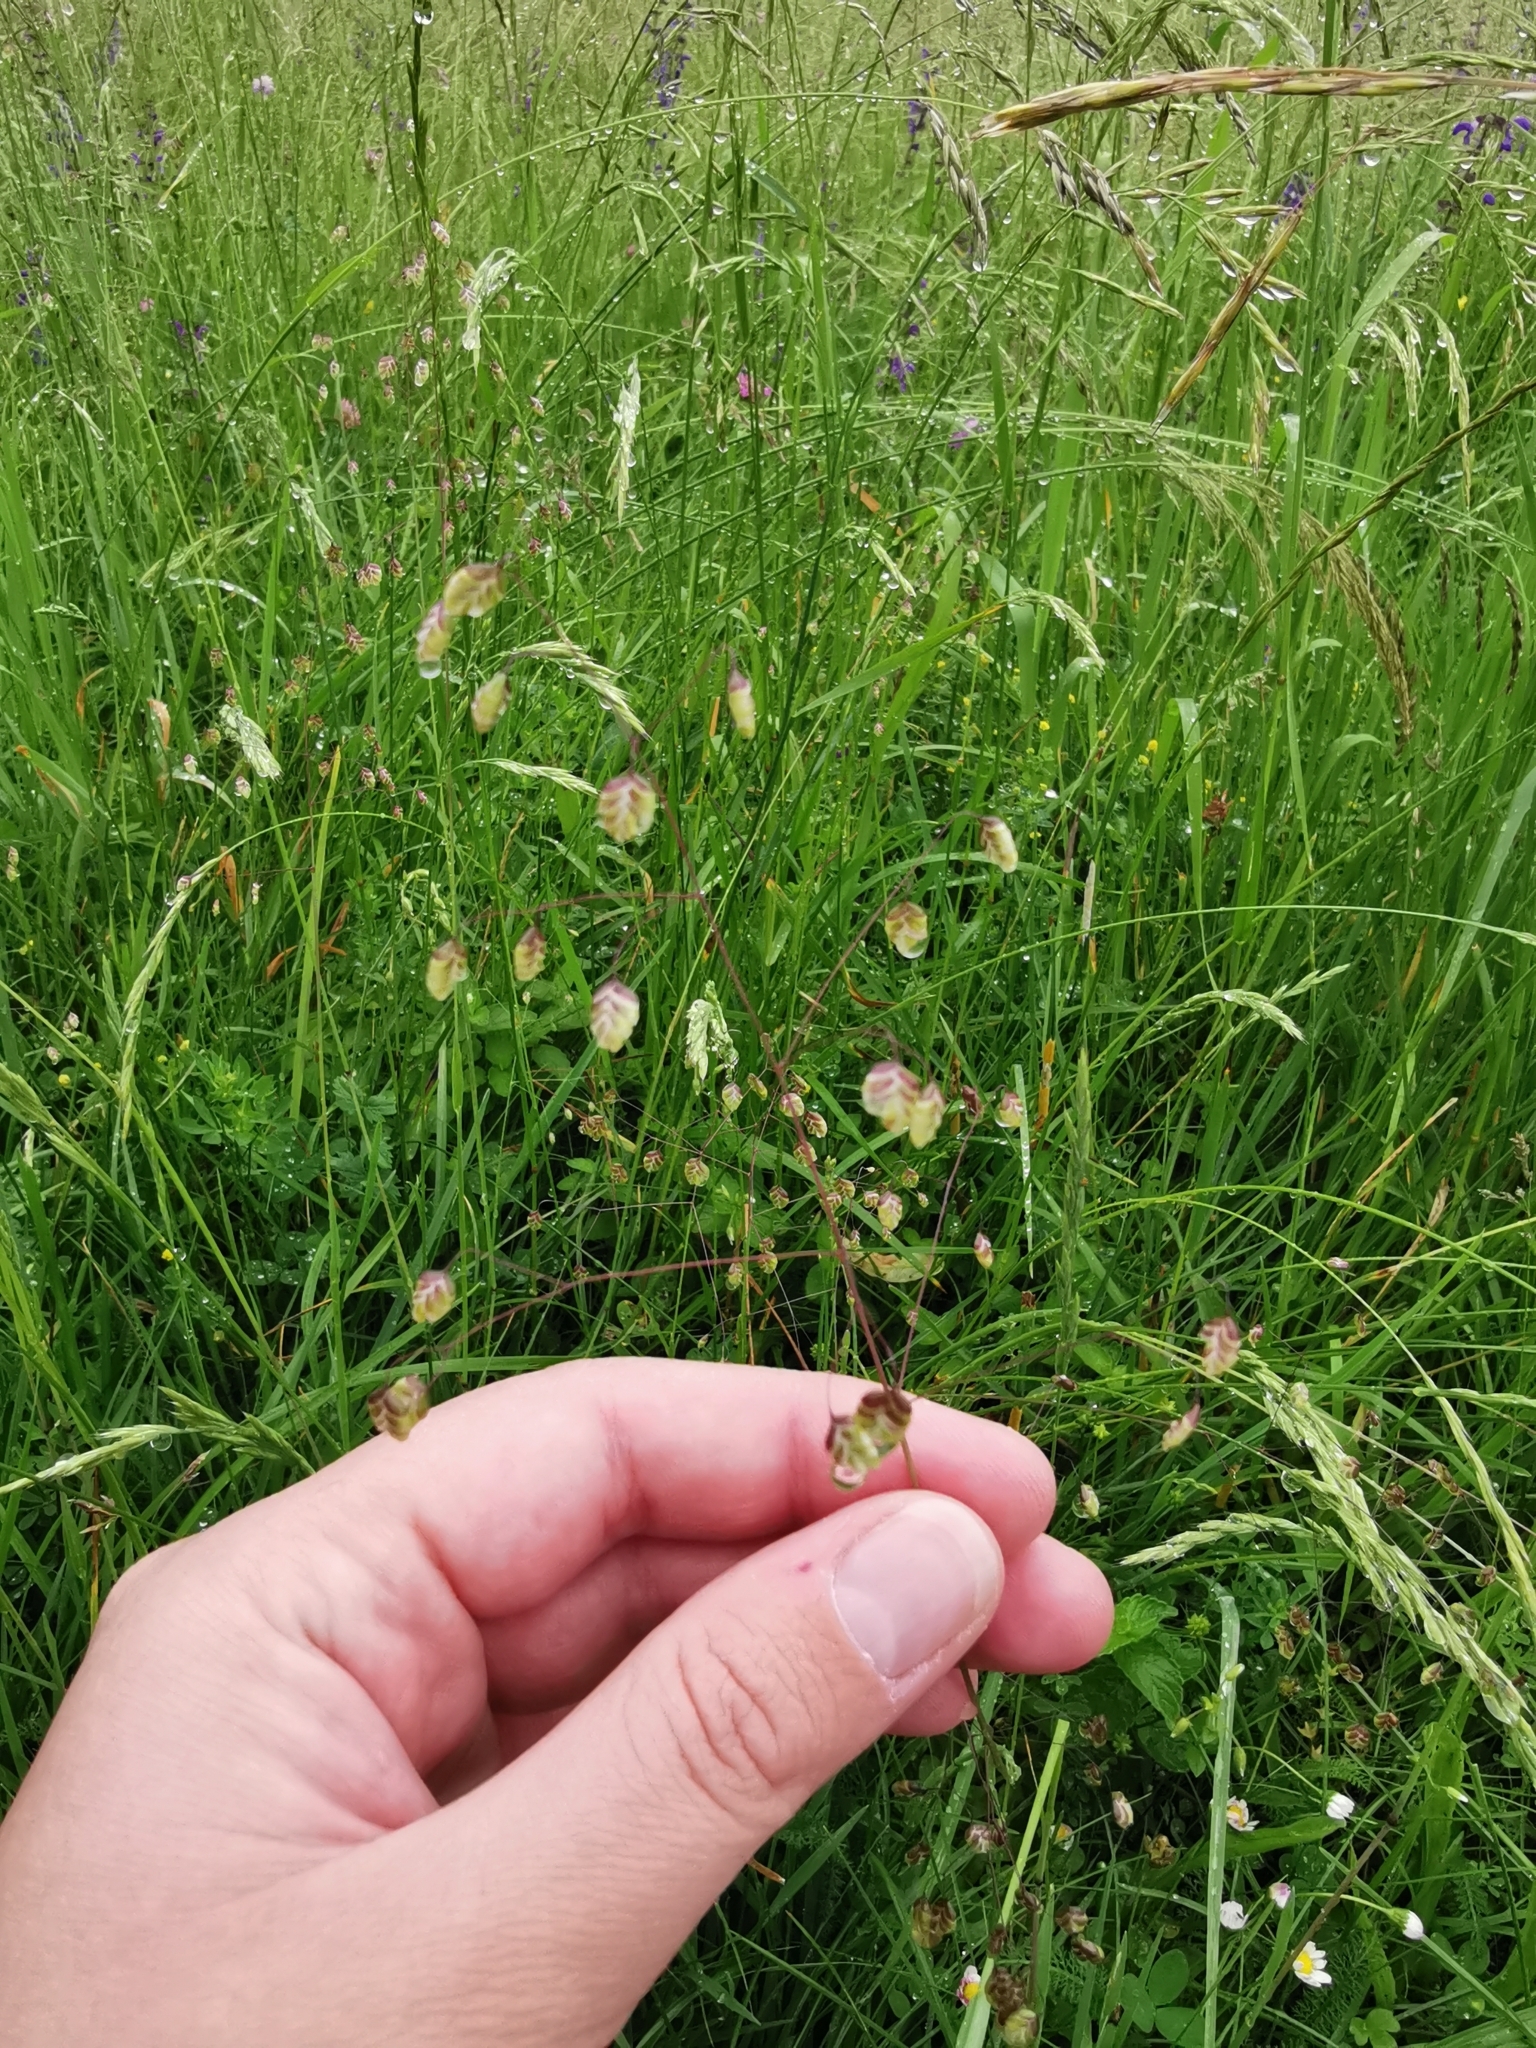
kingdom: Plantae
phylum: Tracheophyta
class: Liliopsida
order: Poales
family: Poaceae
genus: Briza
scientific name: Briza media
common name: Quaking grass
